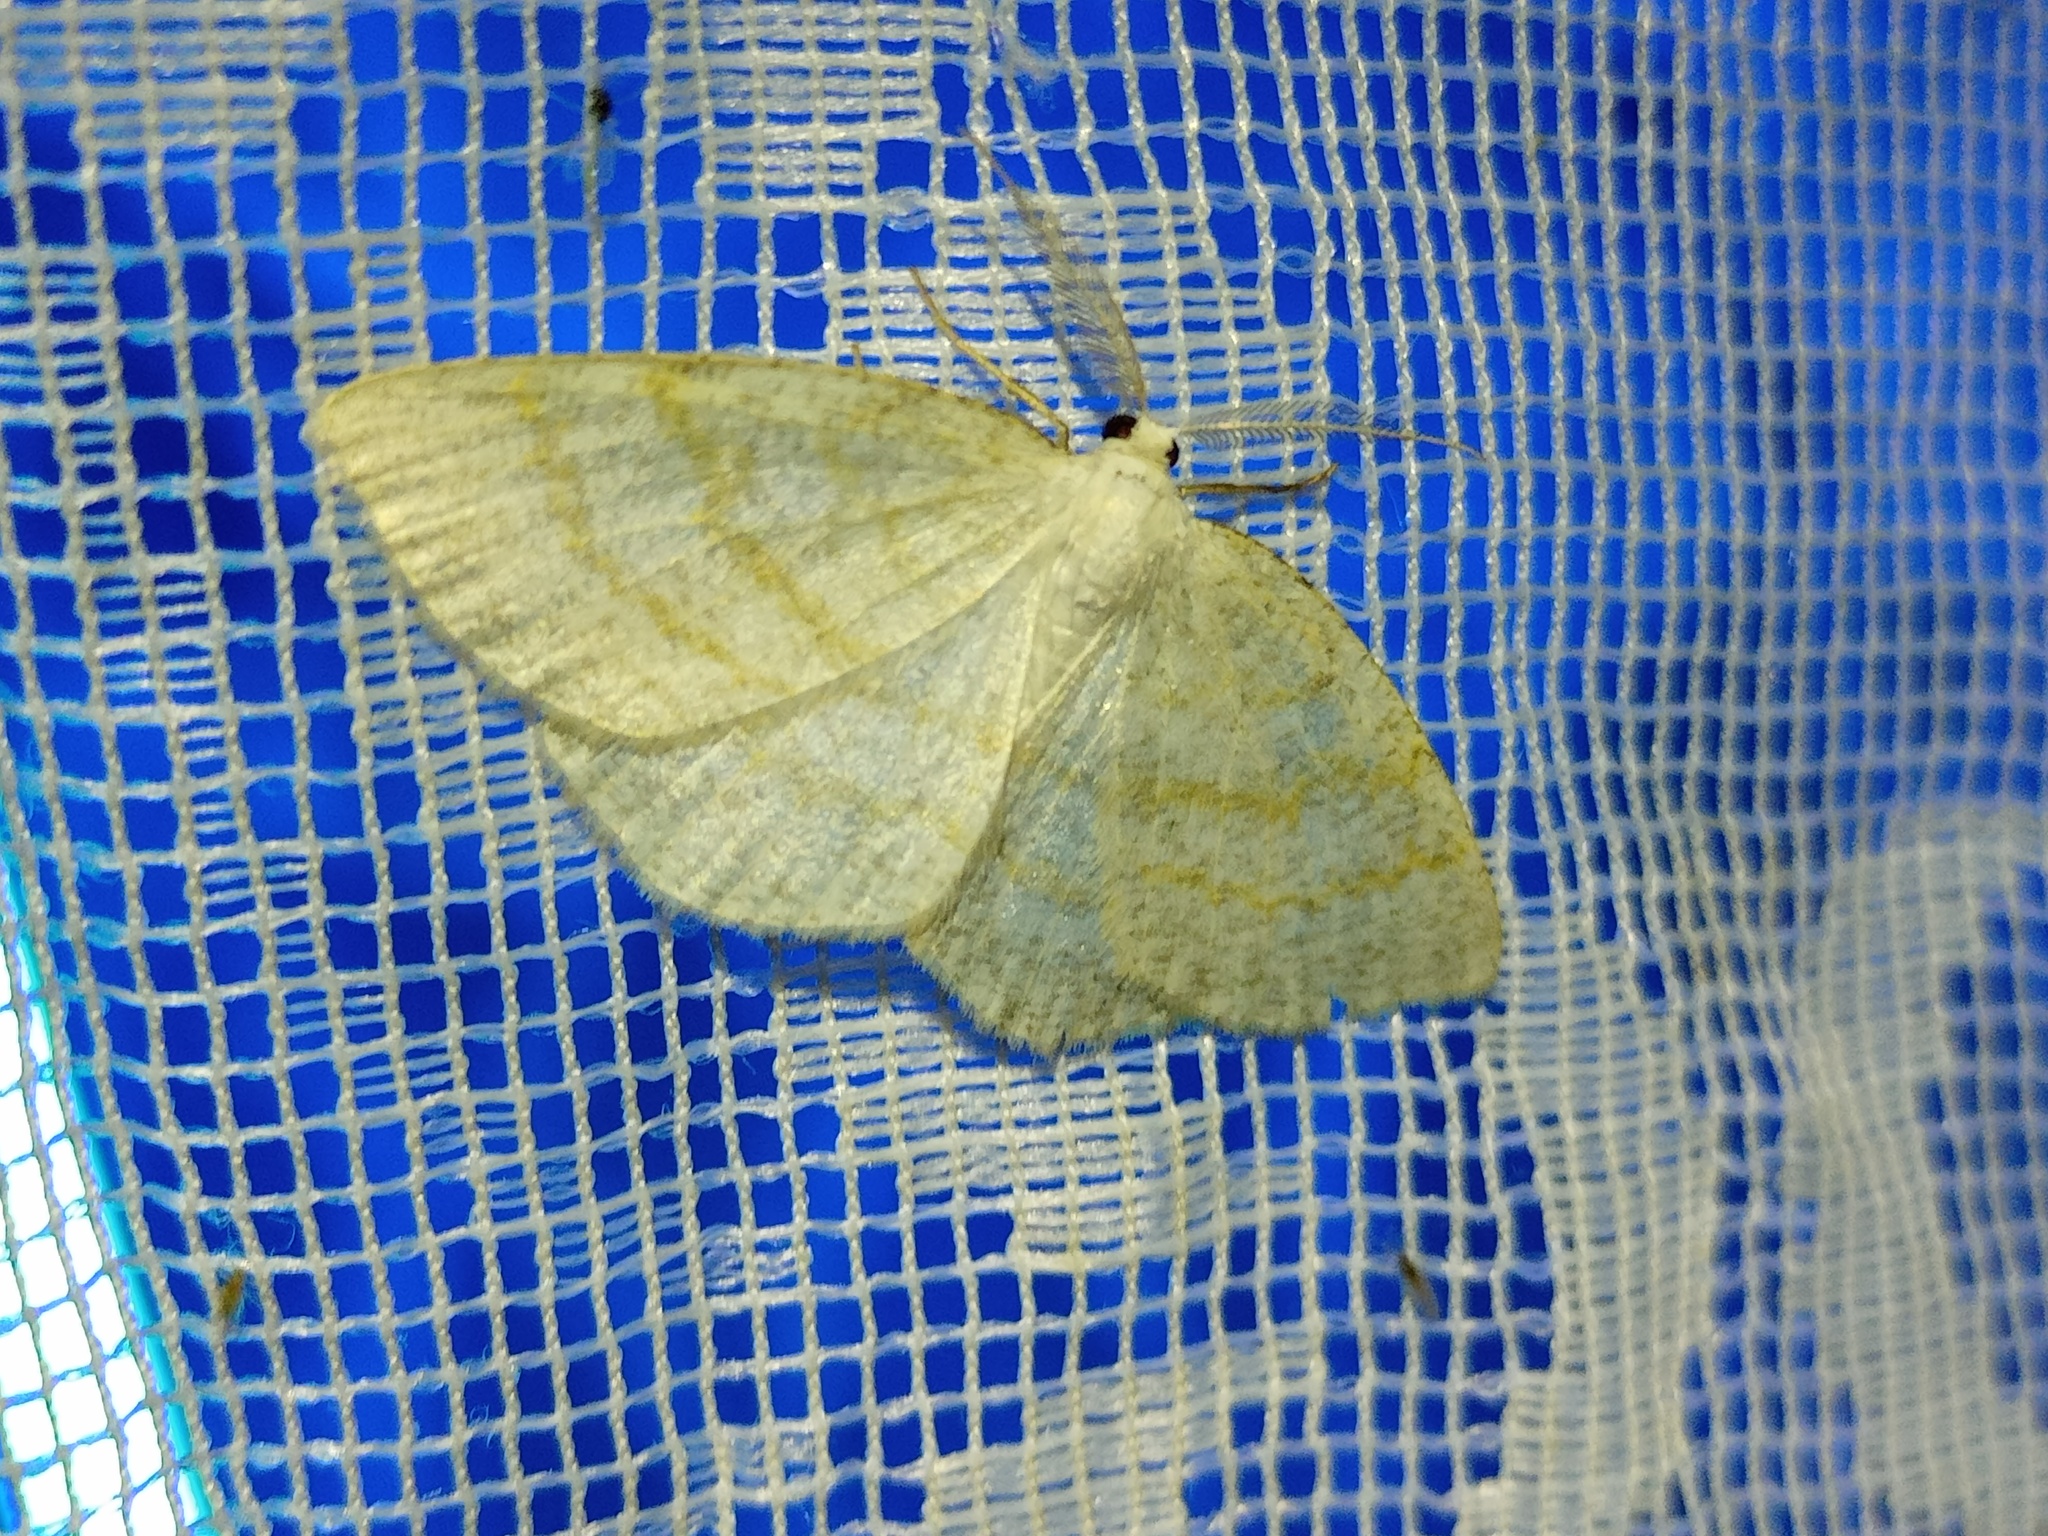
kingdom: Animalia
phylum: Arthropoda
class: Insecta
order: Lepidoptera
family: Geometridae
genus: Cabera
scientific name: Cabera exanthemata
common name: Common wave
